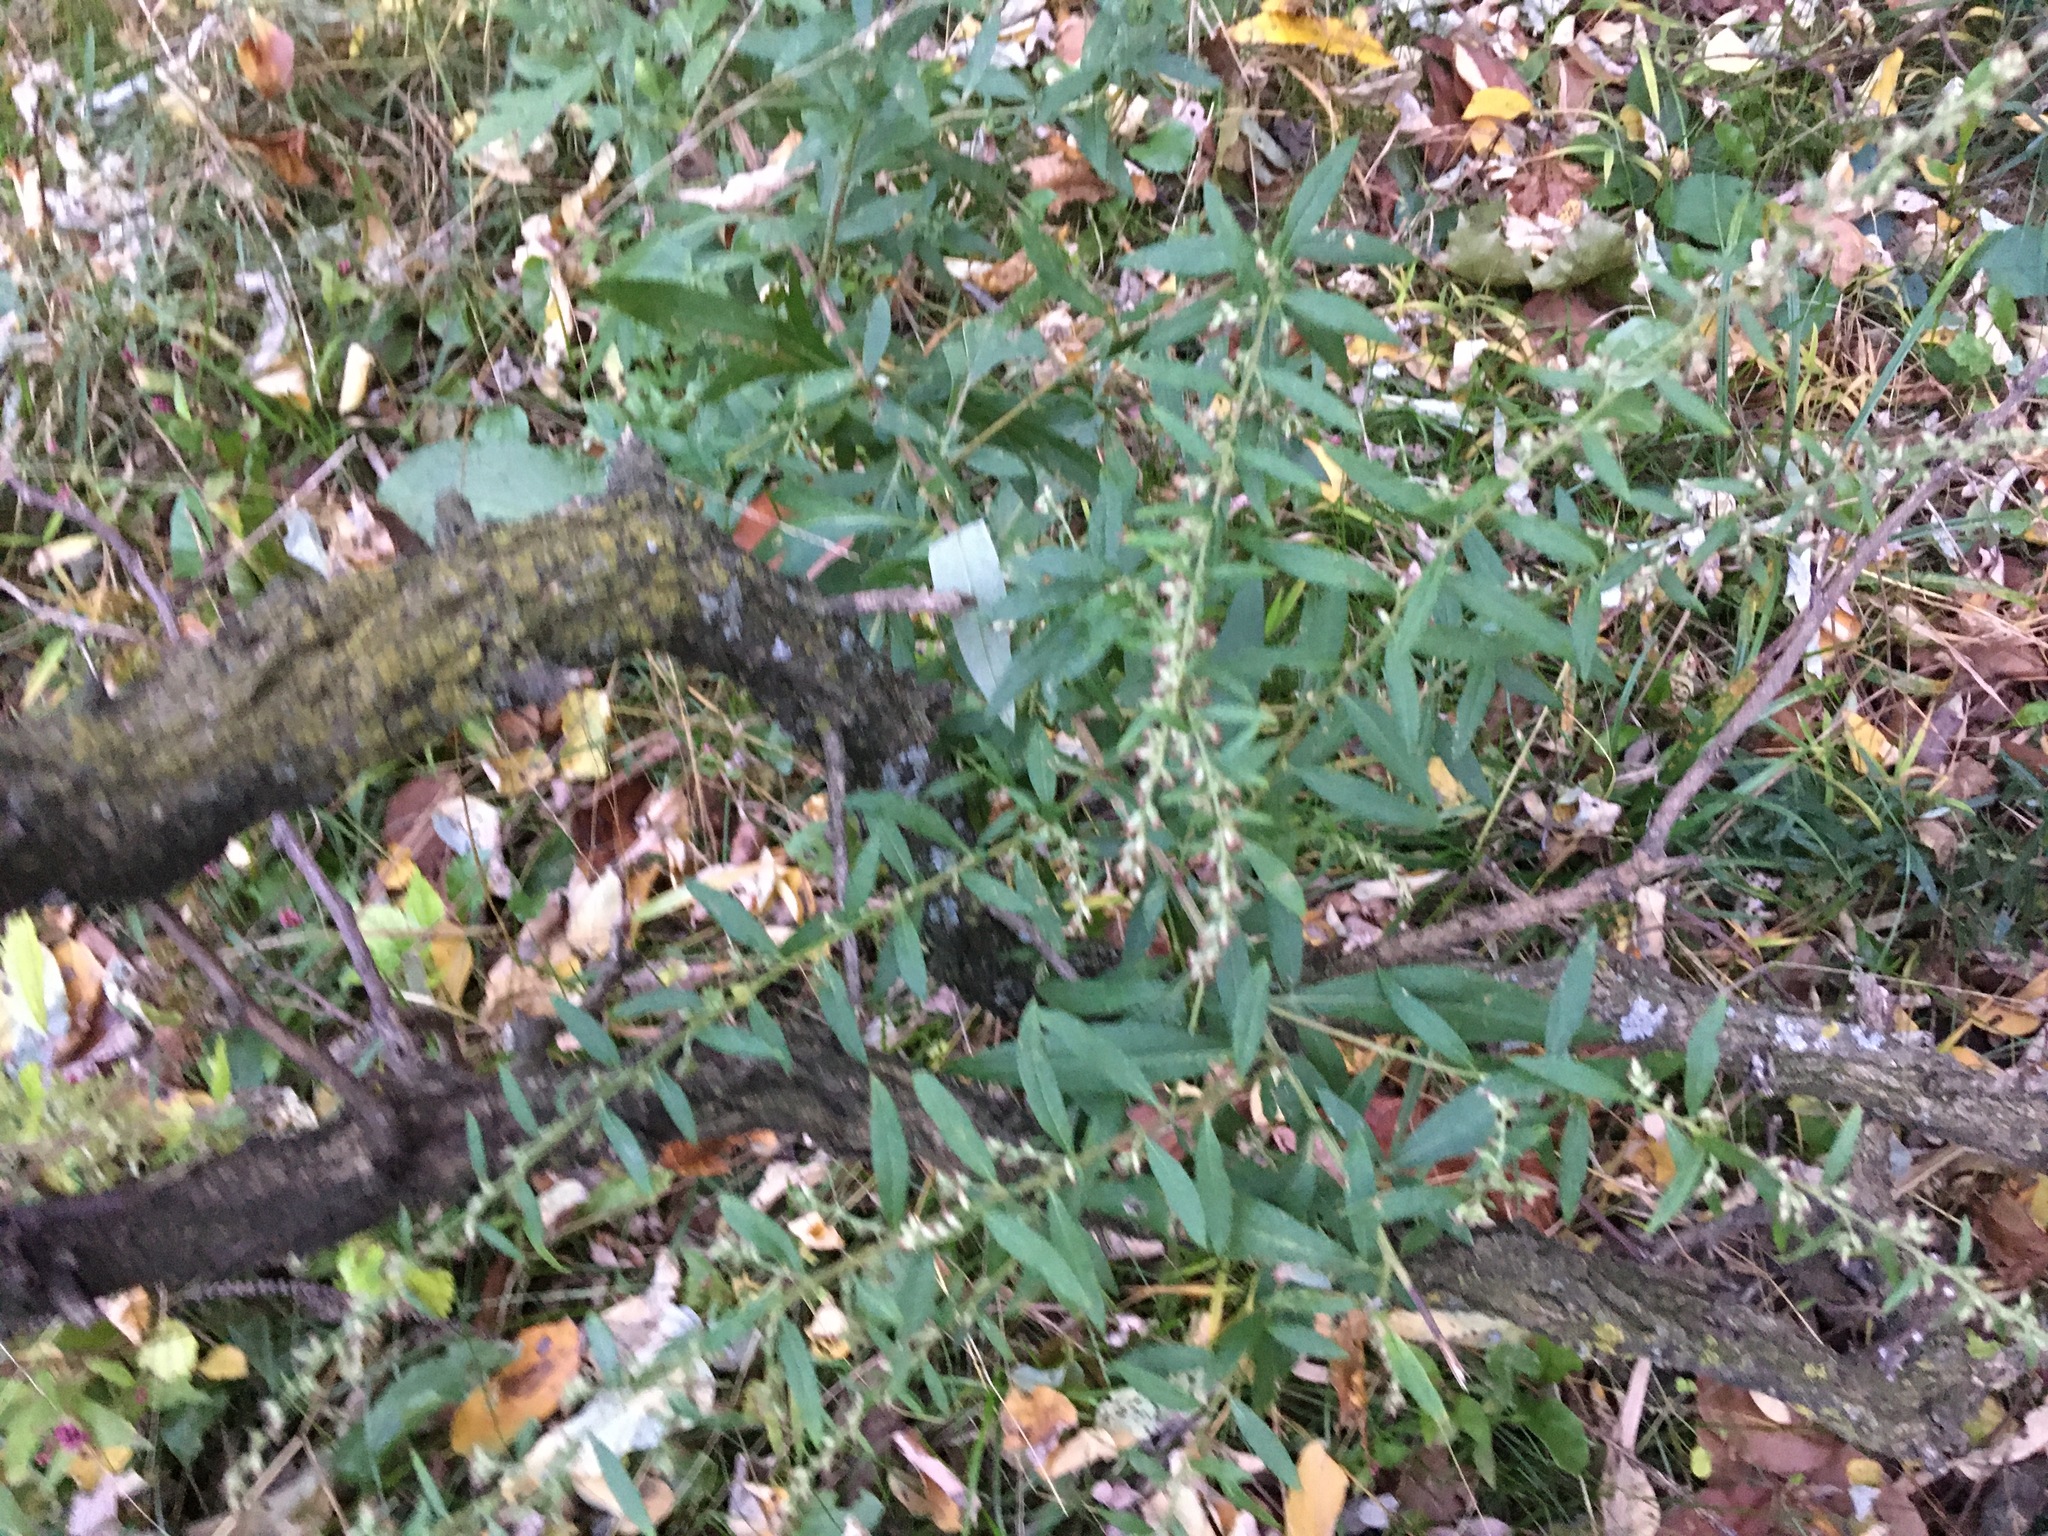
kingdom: Plantae
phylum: Tracheophyta
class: Magnoliopsida
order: Asterales
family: Asteraceae
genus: Artemisia
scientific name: Artemisia vulgaris
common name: Mugwort
